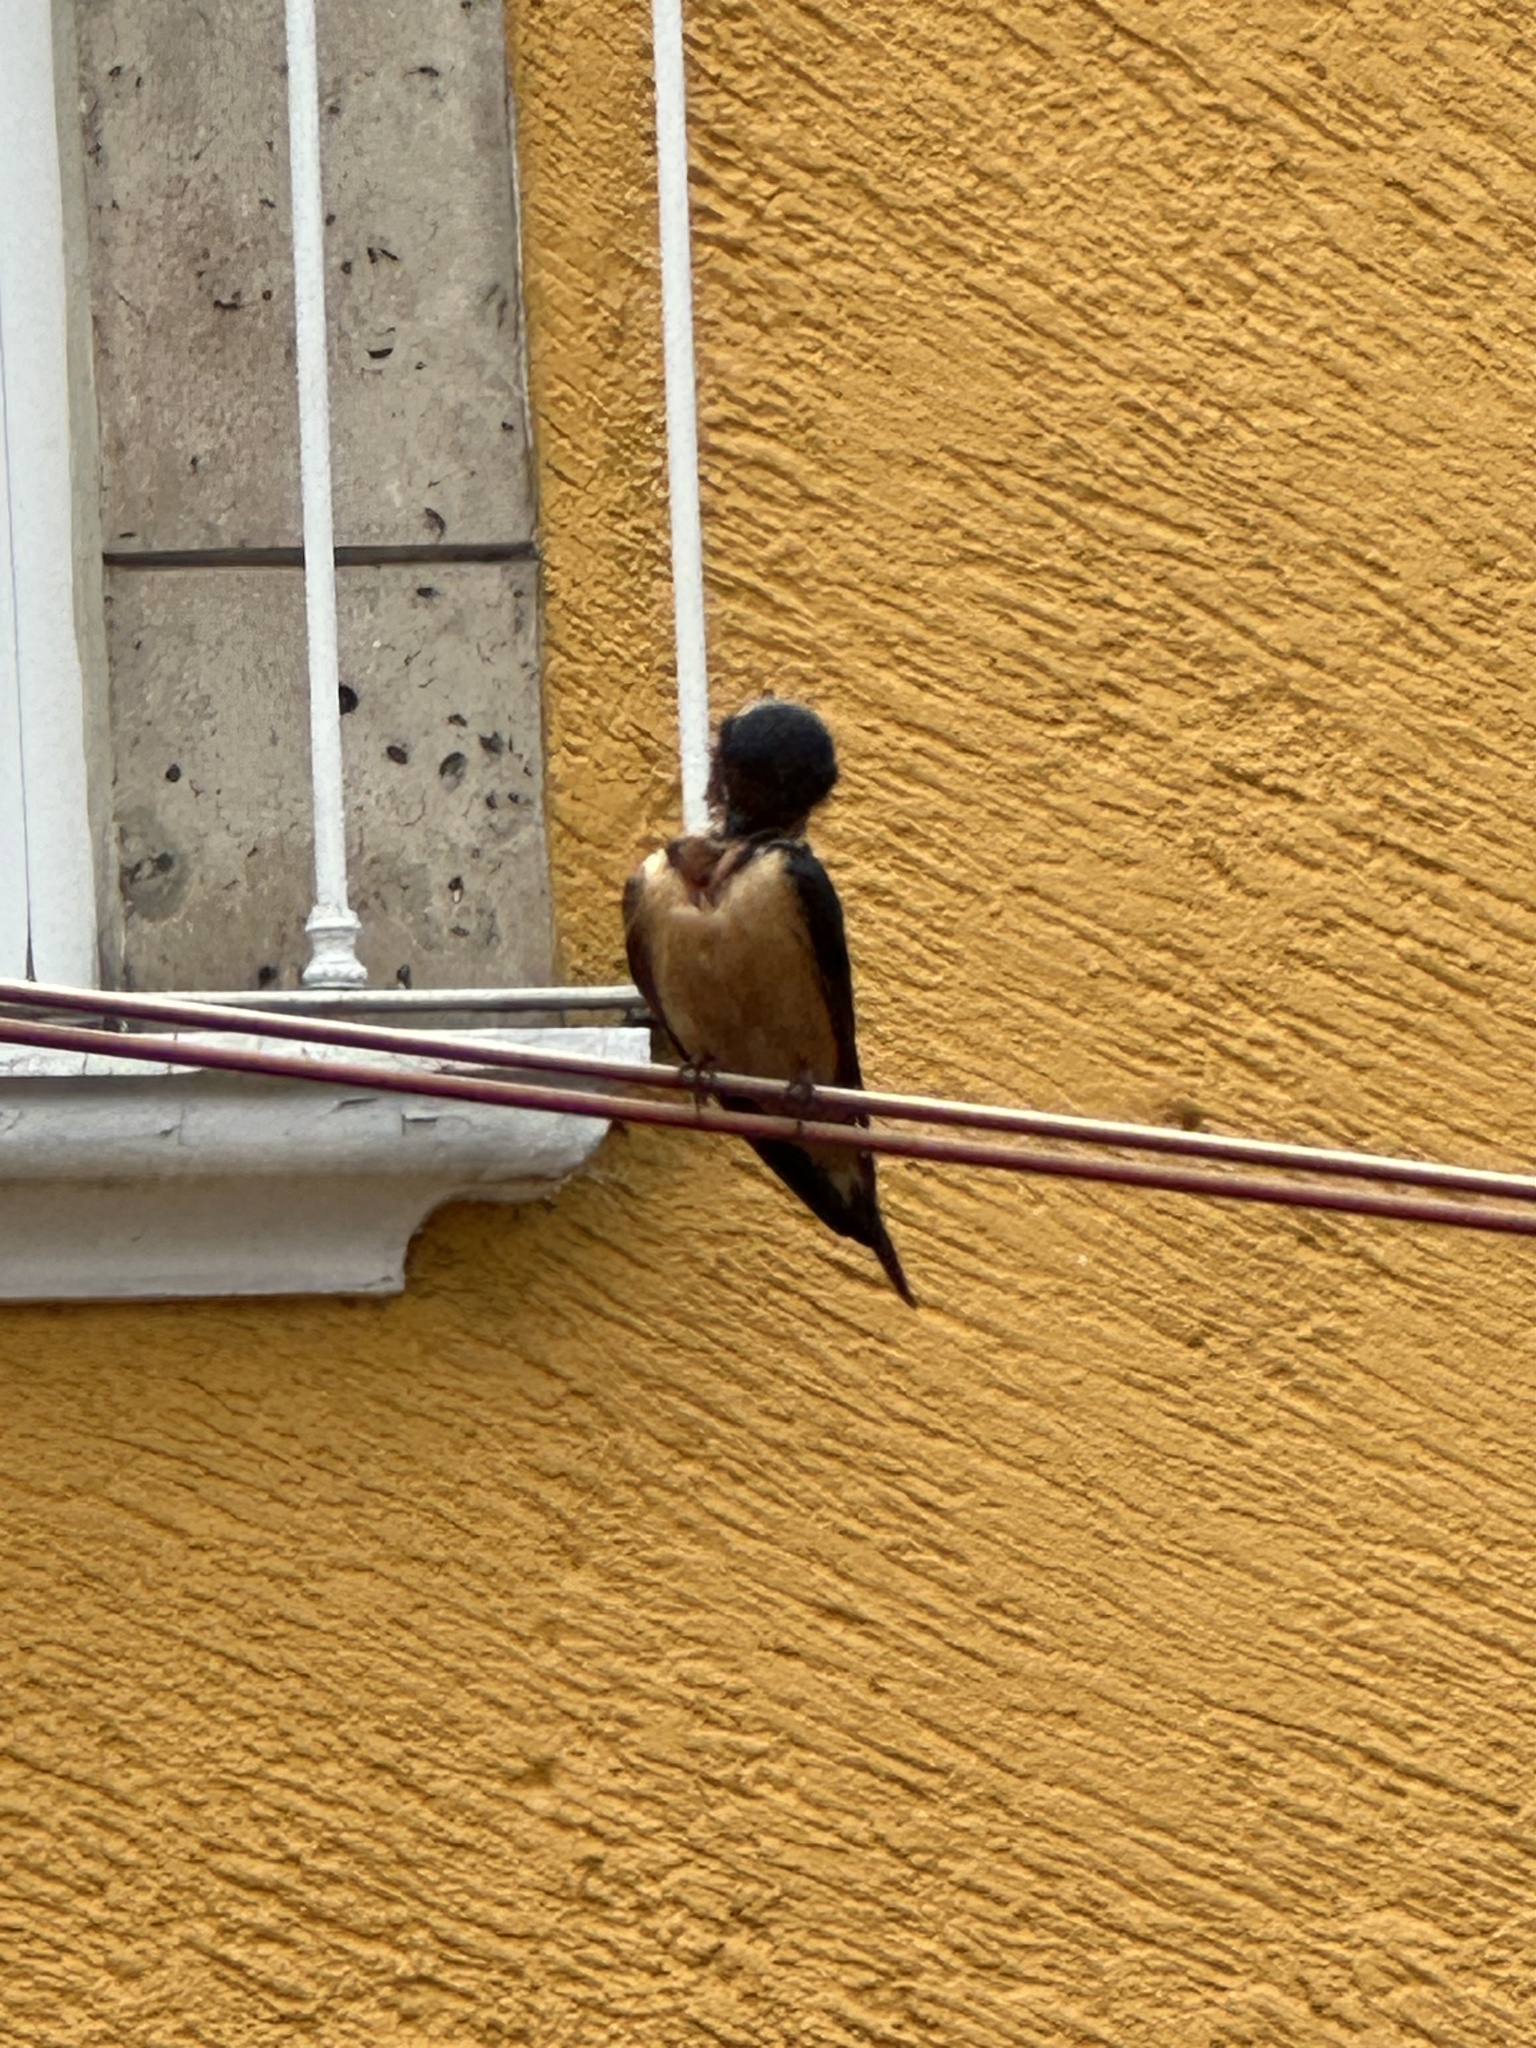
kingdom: Animalia
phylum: Chordata
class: Aves
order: Passeriformes
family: Hirundinidae
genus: Hirundo
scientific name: Hirundo rustica
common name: Barn swallow
